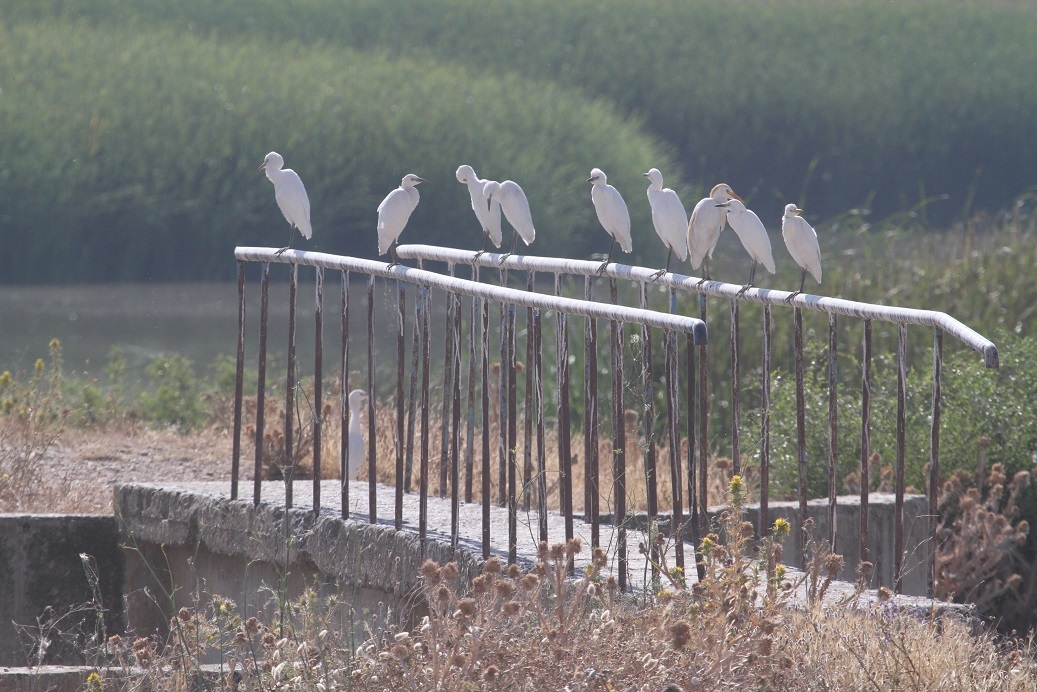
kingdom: Animalia
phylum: Chordata
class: Aves
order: Pelecaniformes
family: Ardeidae
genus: Bubulcus
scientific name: Bubulcus ibis
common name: Cattle egret
